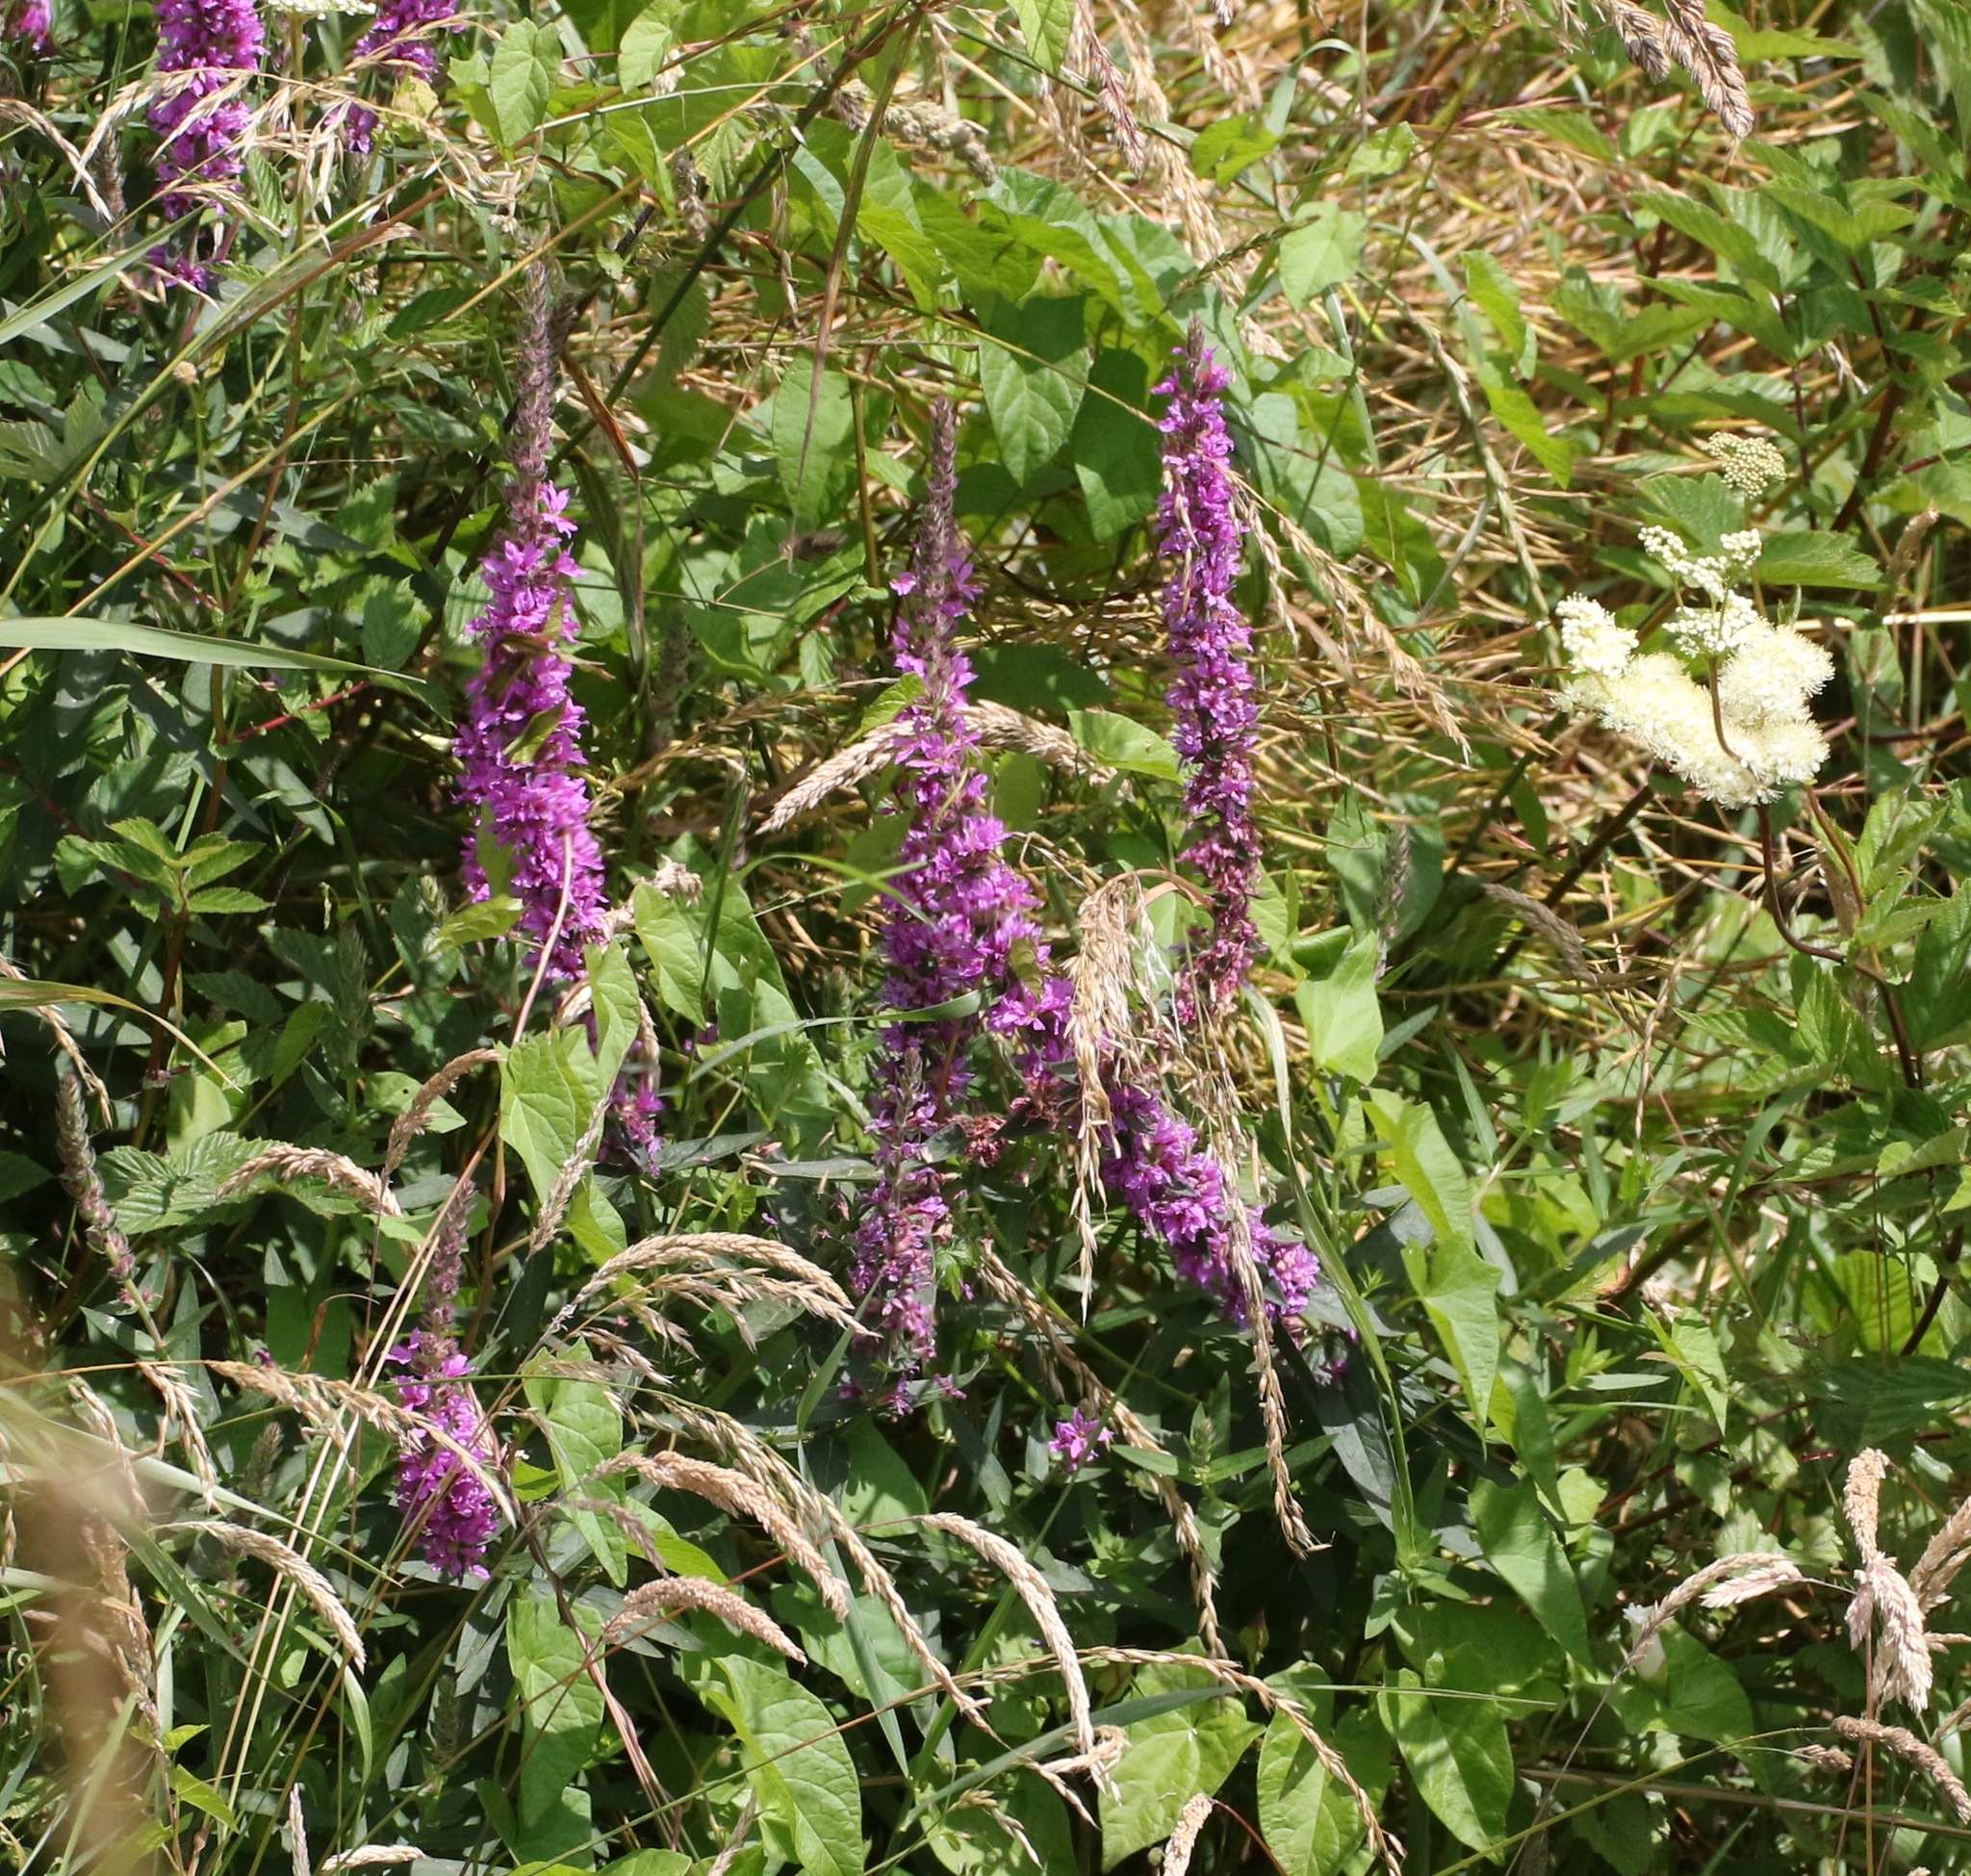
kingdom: Plantae
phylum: Tracheophyta
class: Magnoliopsida
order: Myrtales
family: Lythraceae
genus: Lythrum
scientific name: Lythrum salicaria
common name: Purple loosestrife
